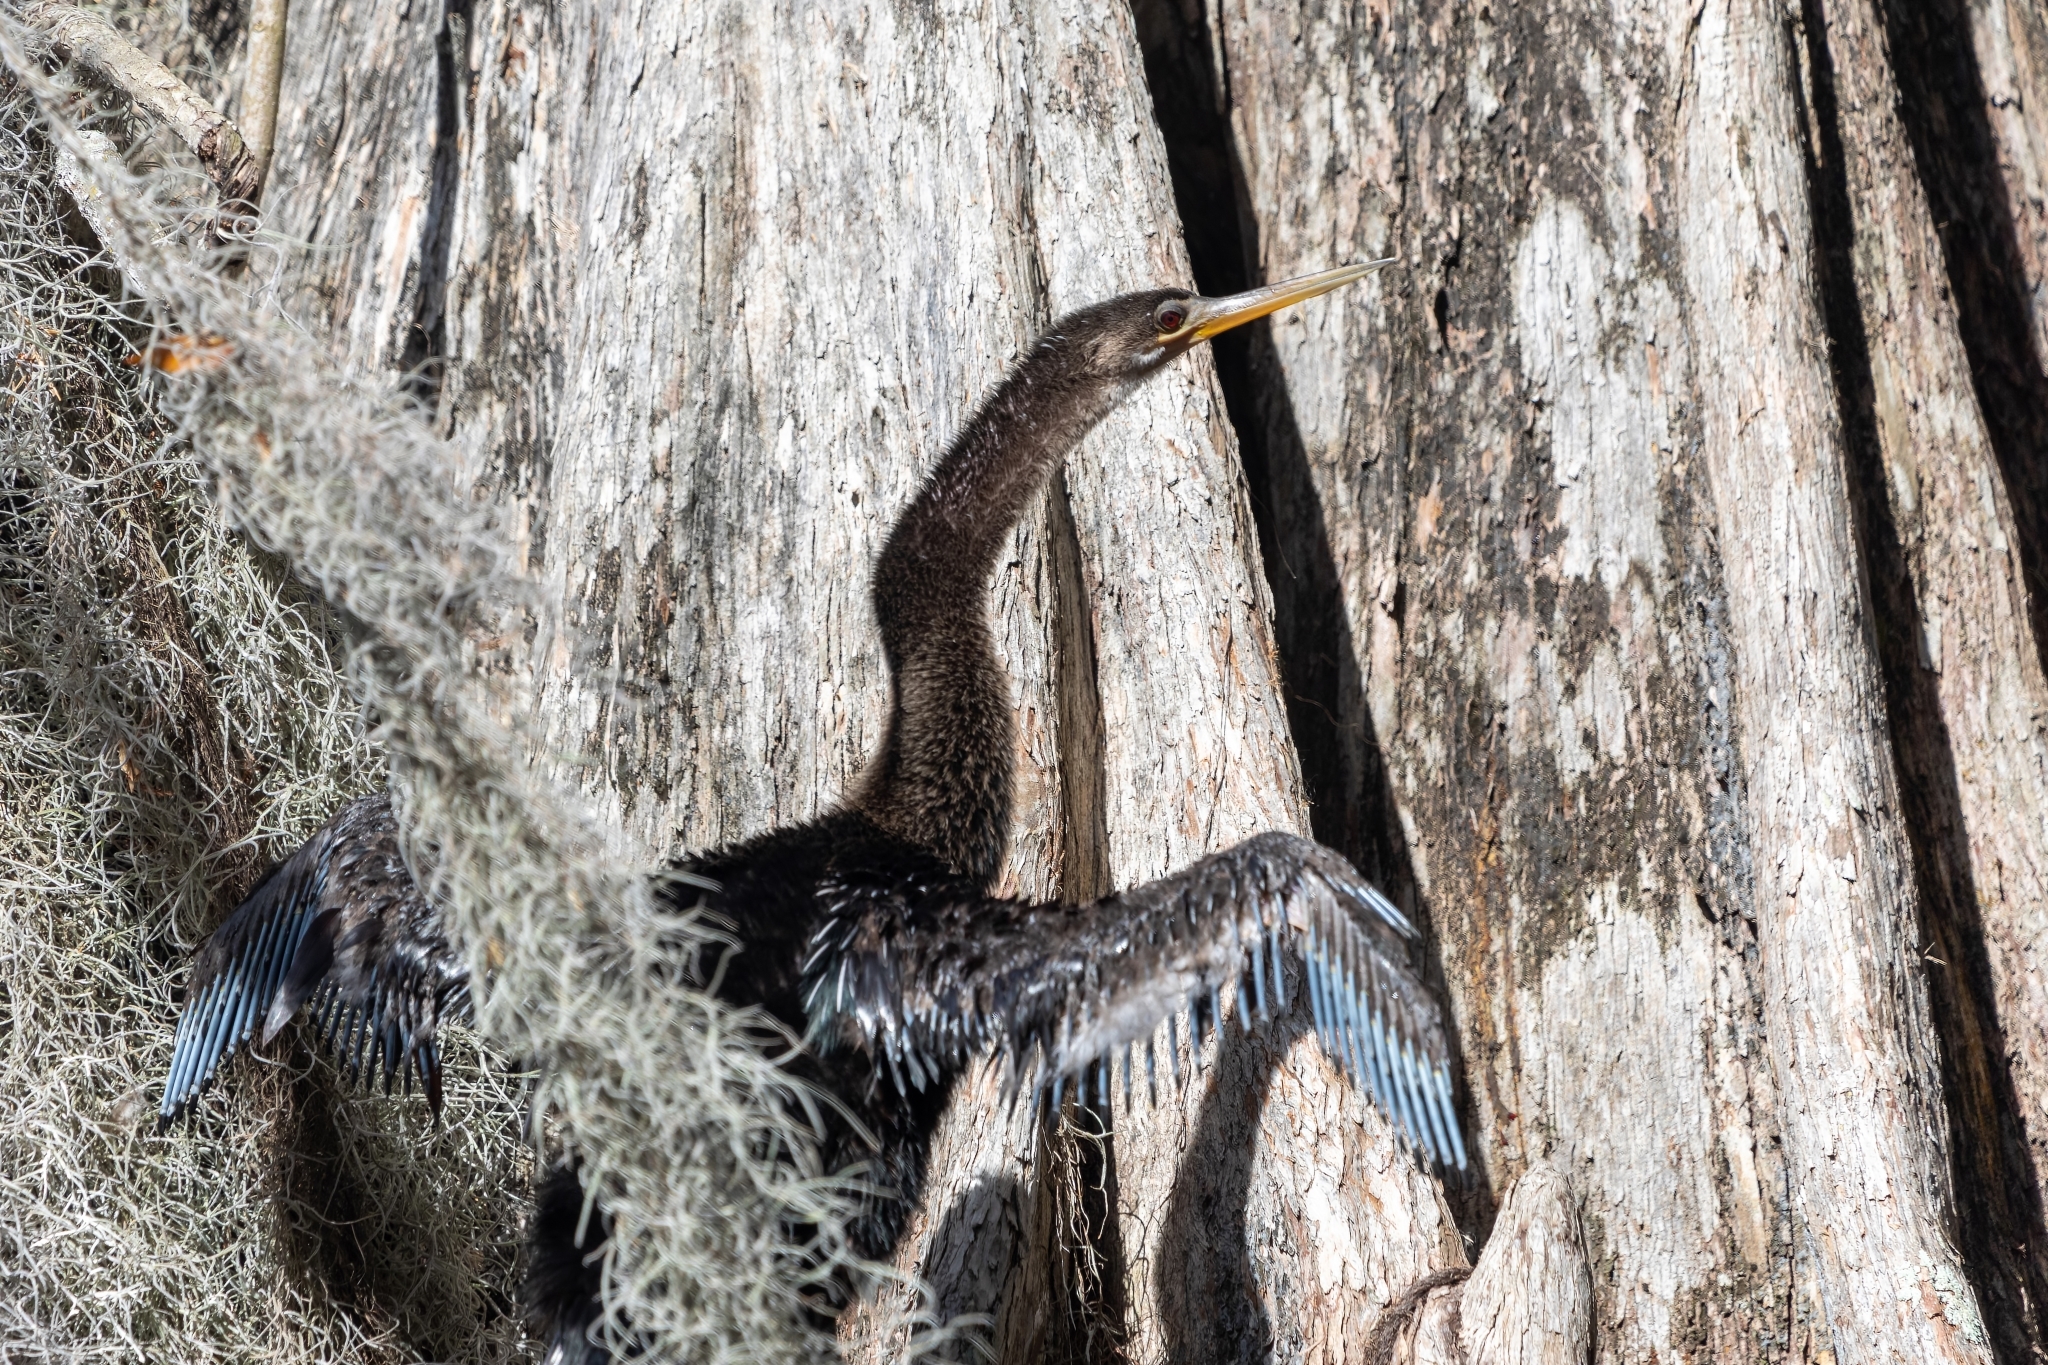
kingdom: Animalia
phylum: Chordata
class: Aves
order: Suliformes
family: Anhingidae
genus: Anhinga
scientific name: Anhinga anhinga
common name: Anhinga
